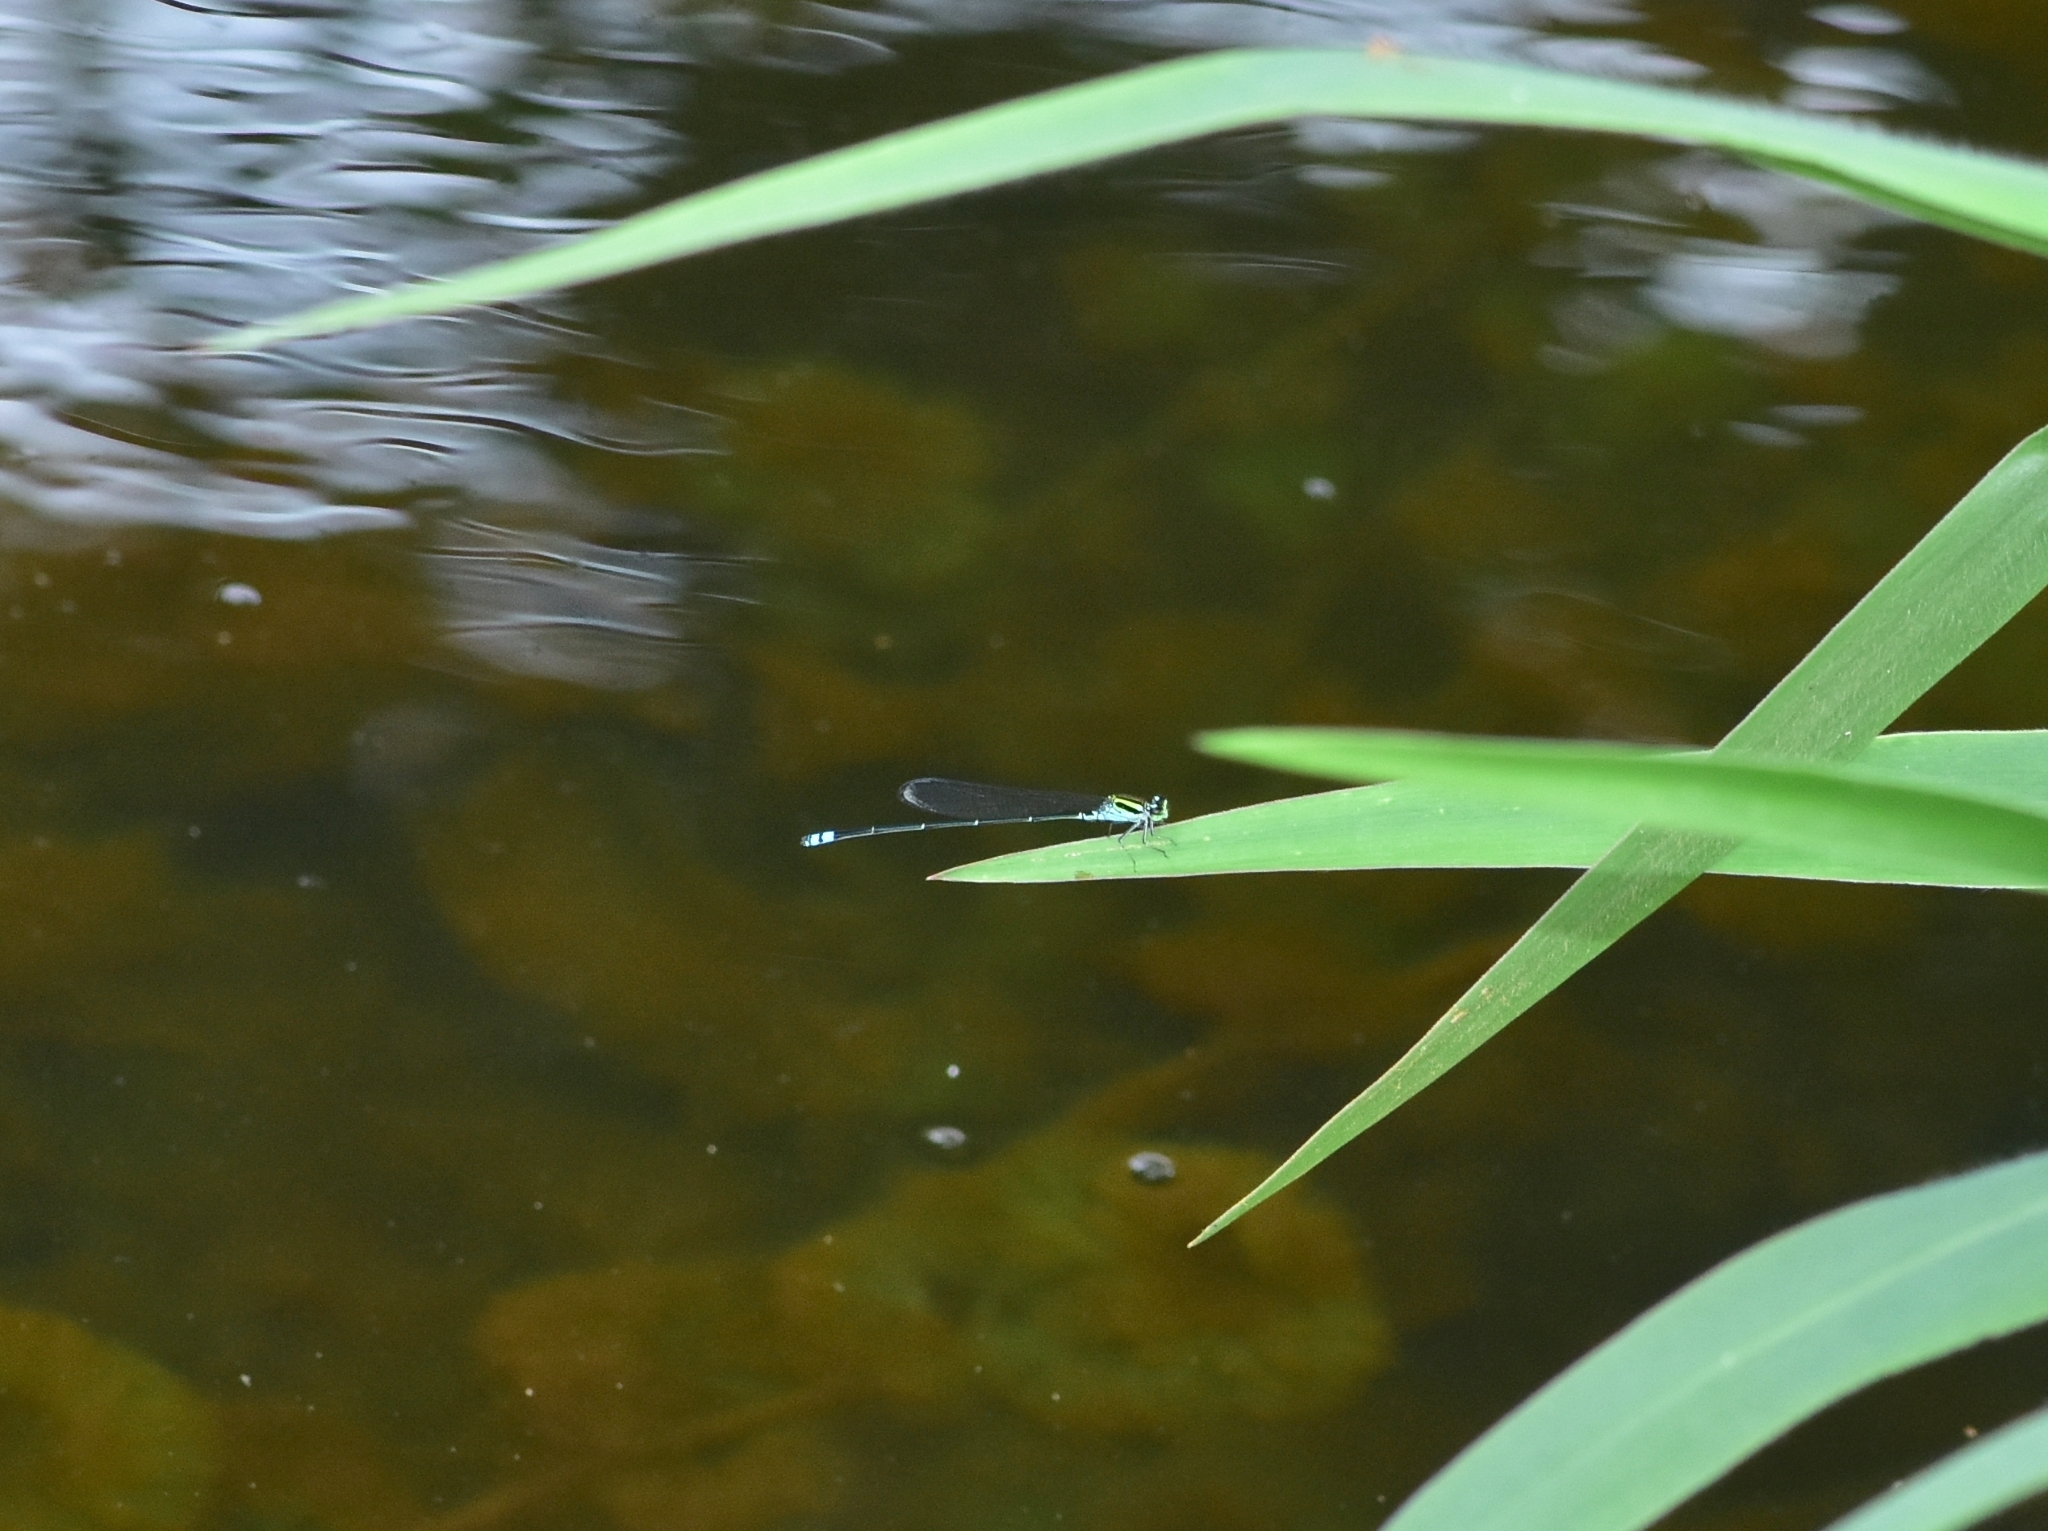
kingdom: Animalia
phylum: Arthropoda
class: Insecta
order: Odonata
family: Coenagrionidae
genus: Pseudagrion
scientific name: Pseudagrion indicum
